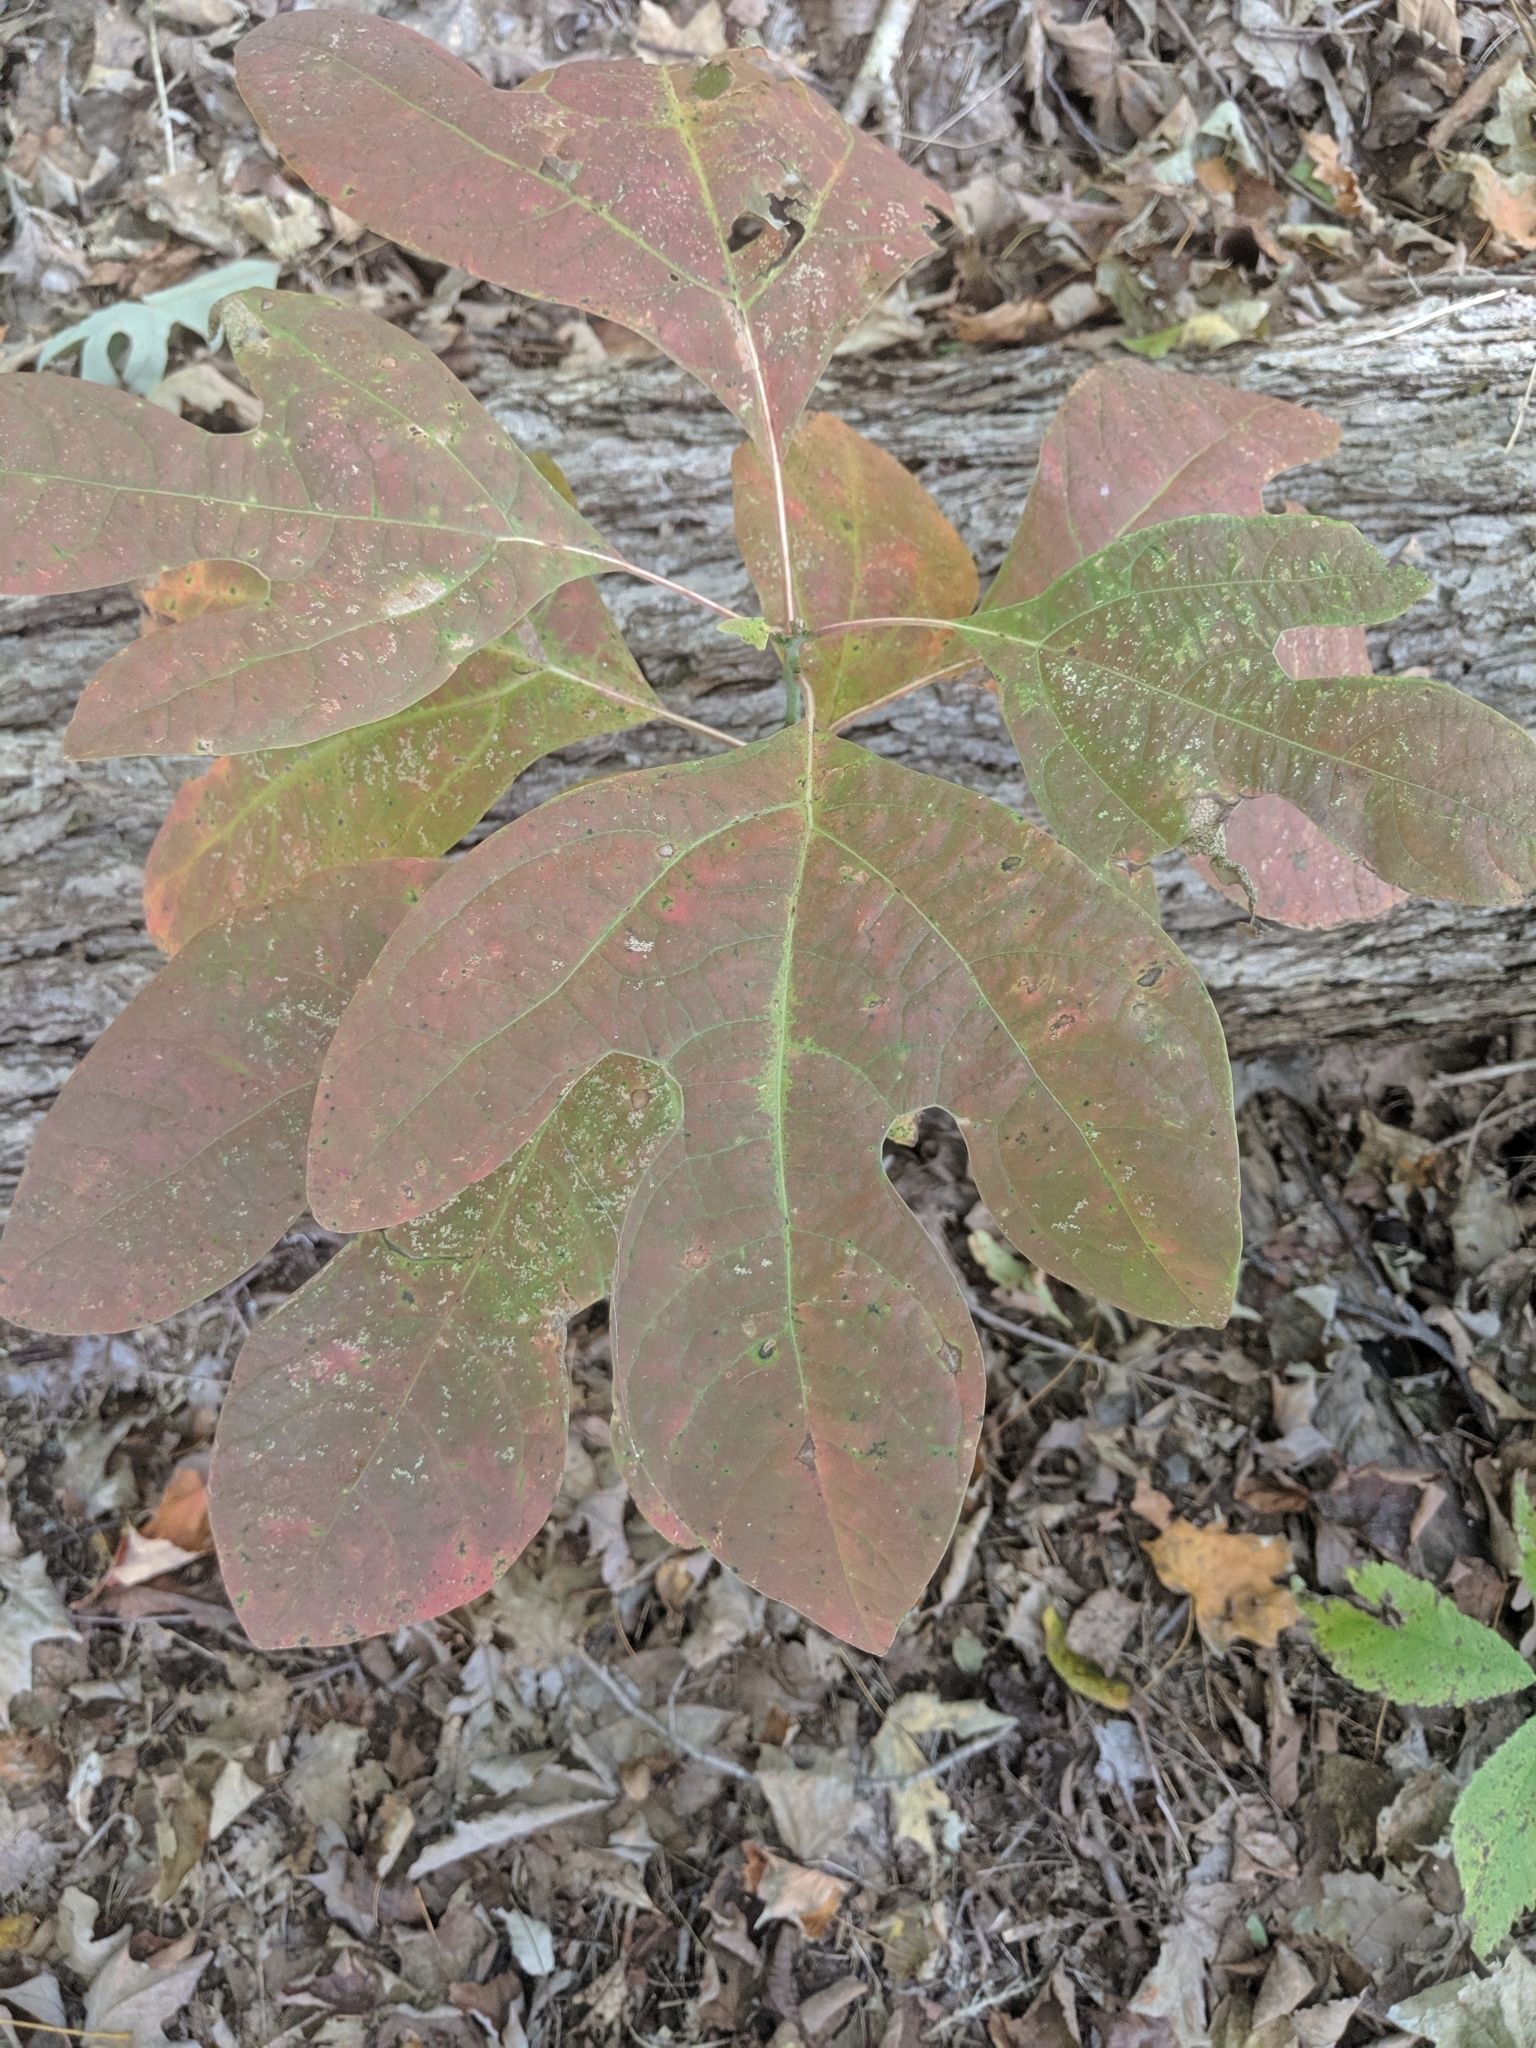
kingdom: Plantae
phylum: Tracheophyta
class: Magnoliopsida
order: Laurales
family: Lauraceae
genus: Sassafras
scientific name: Sassafras albidum
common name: Sassafras
